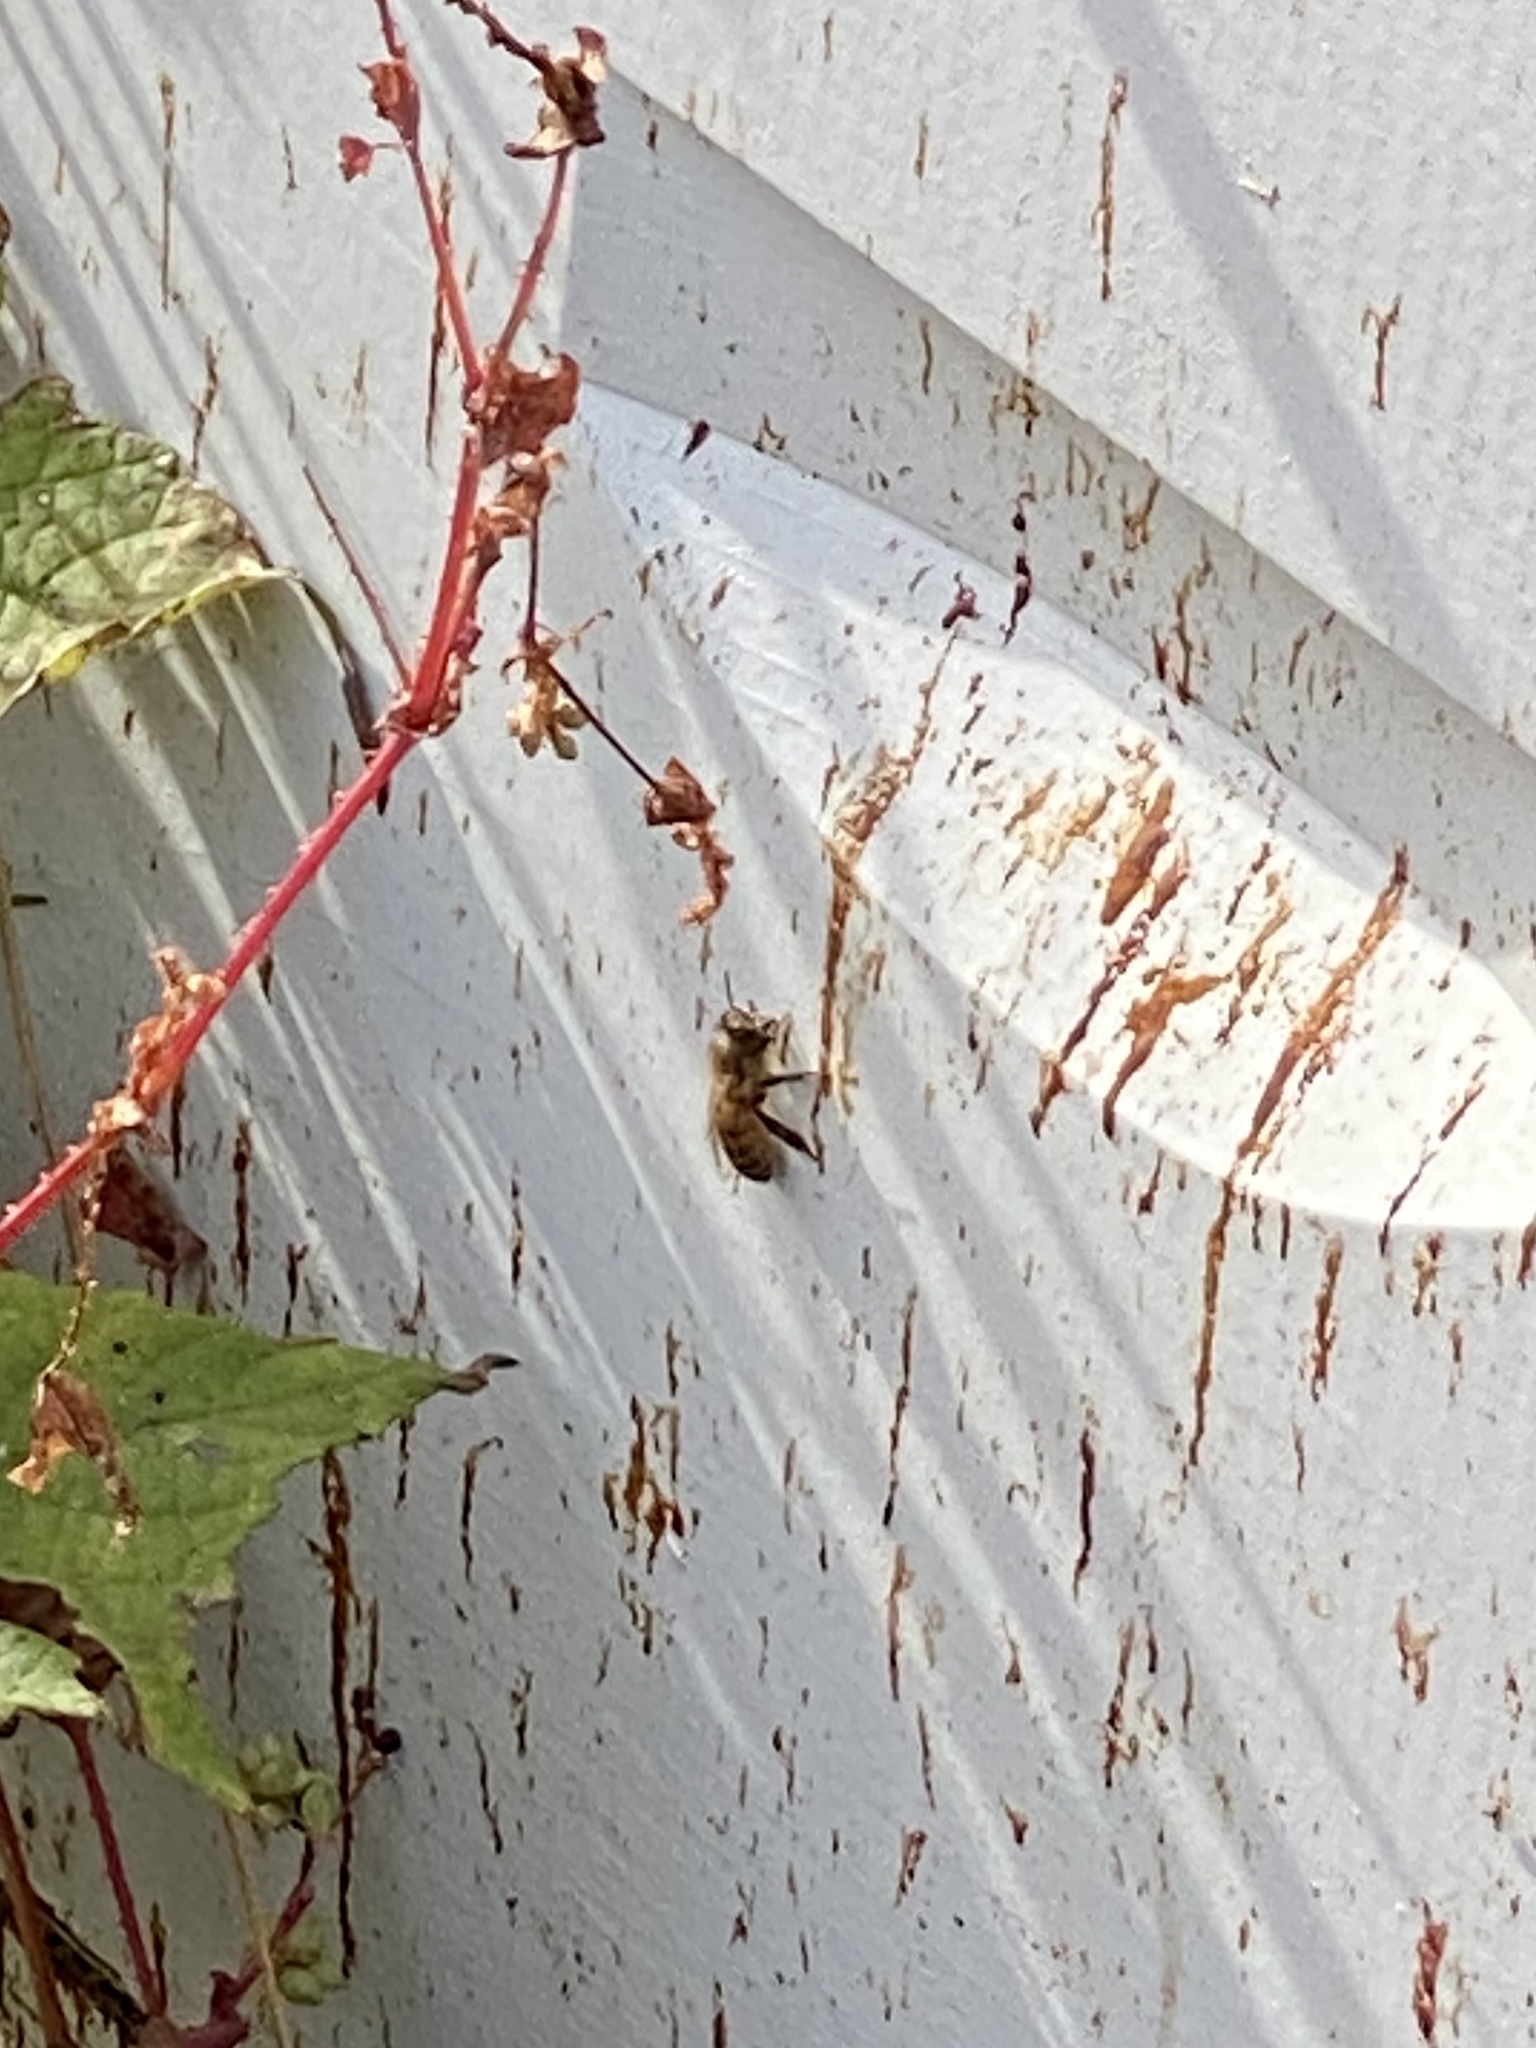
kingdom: Animalia
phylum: Arthropoda
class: Insecta
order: Hymenoptera
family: Apidae
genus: Apis
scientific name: Apis mellifera
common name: Honey bee
